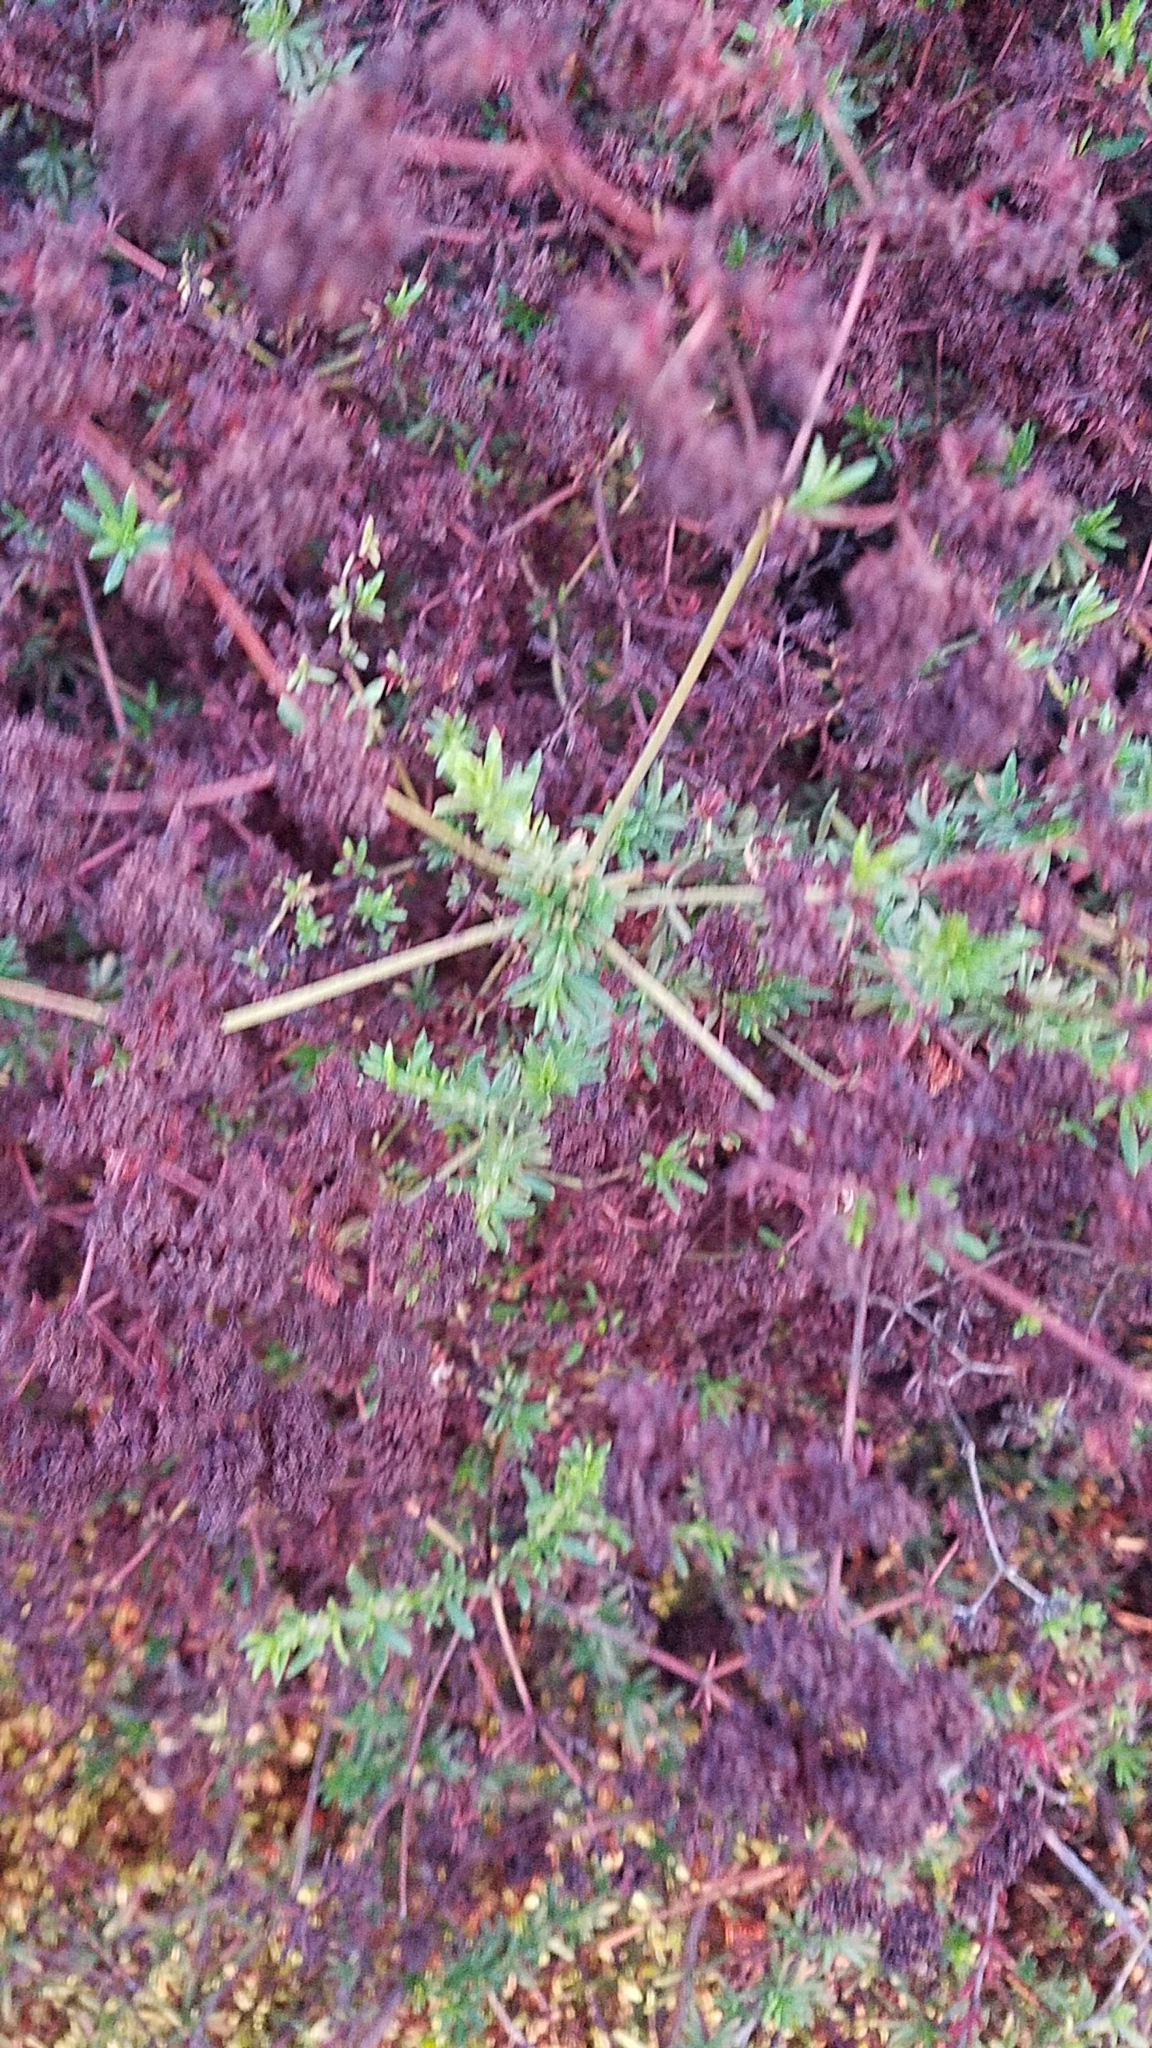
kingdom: Plantae
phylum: Tracheophyta
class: Magnoliopsida
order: Caryophyllales
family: Polygonaceae
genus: Eriogonum
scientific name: Eriogonum fasciculatum
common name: California wild buckwheat
